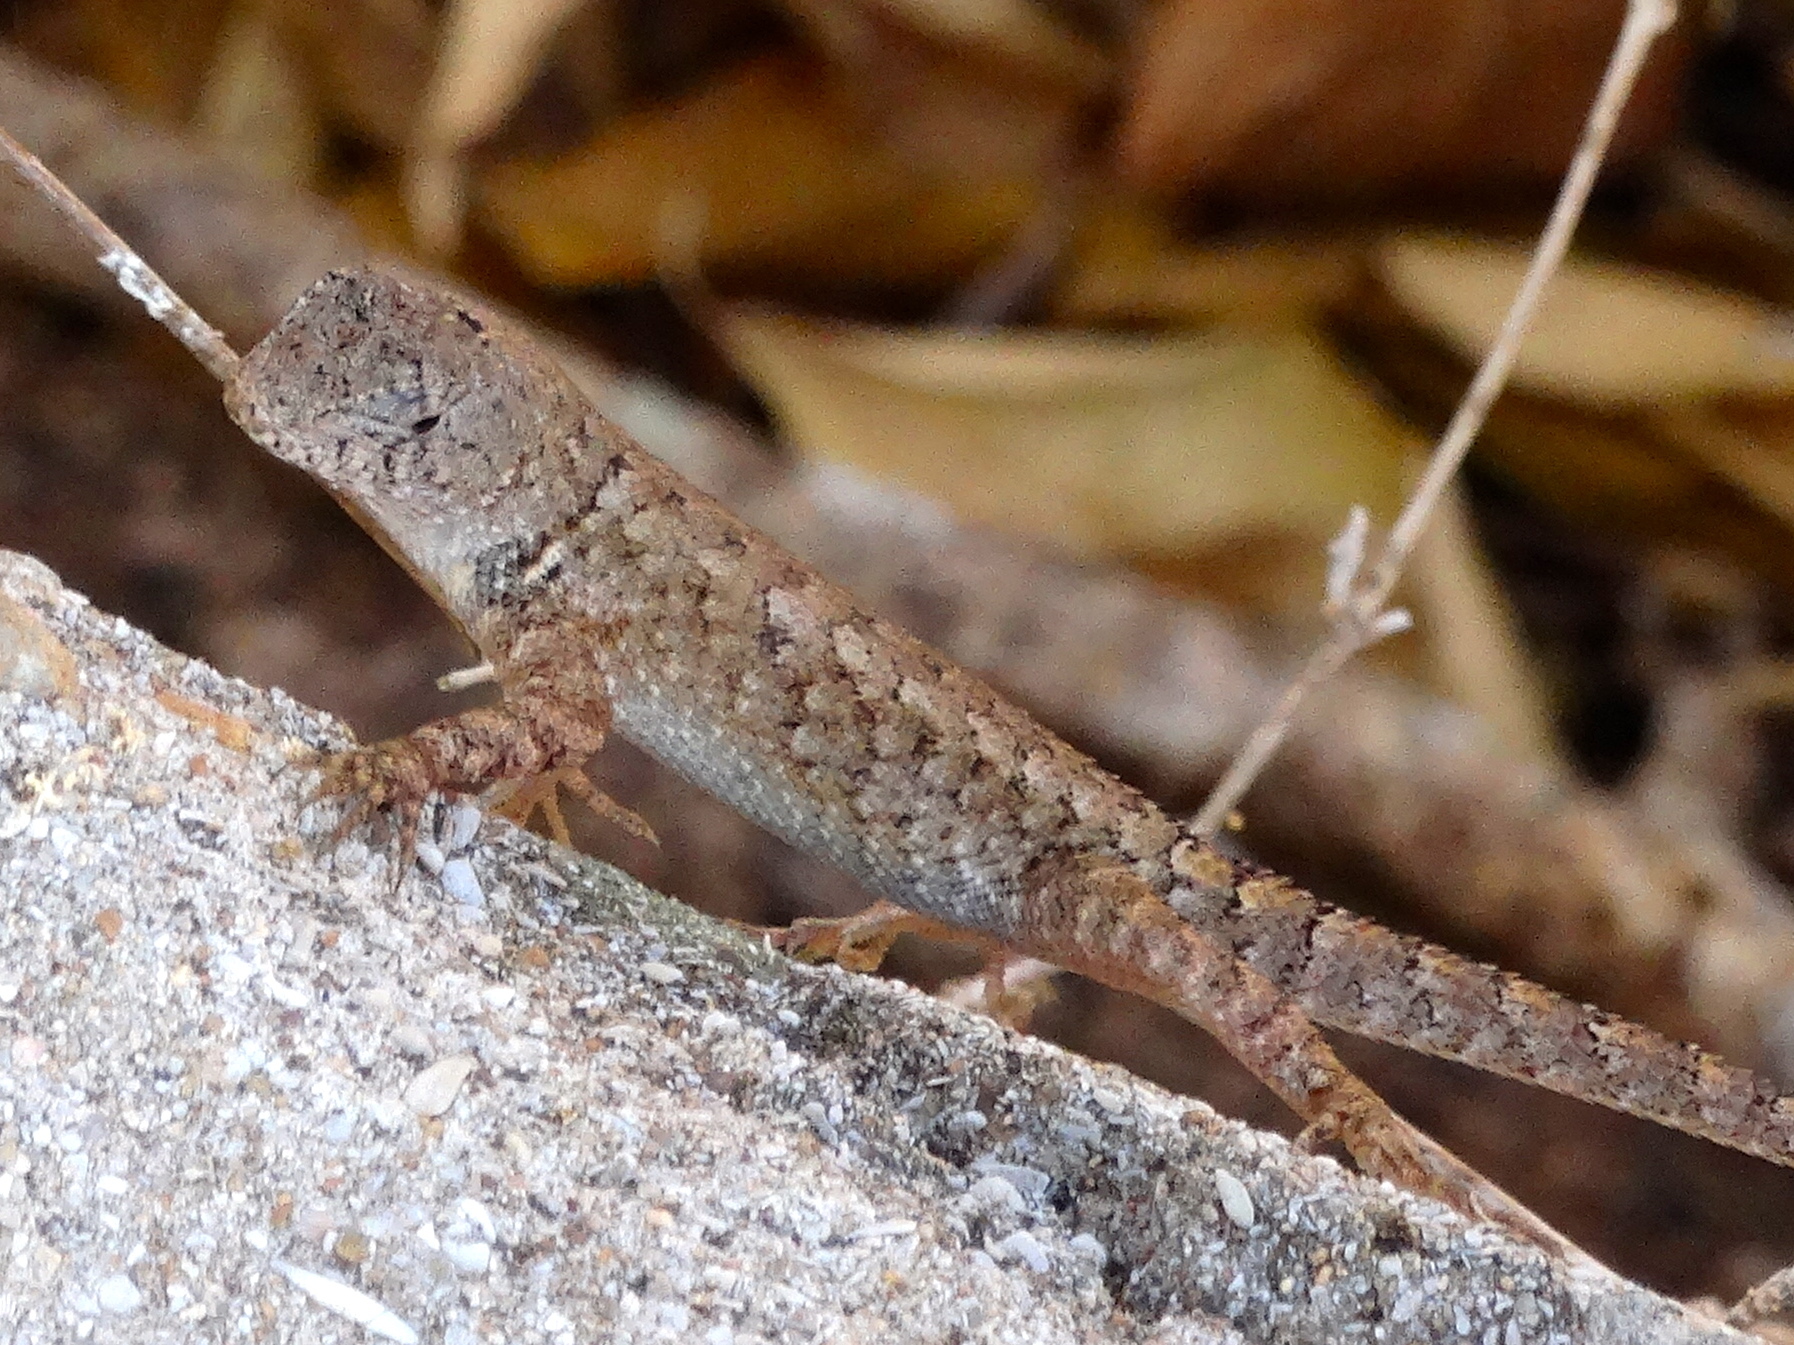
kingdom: Animalia
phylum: Chordata
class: Squamata
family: Phrynosomatidae
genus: Sceloporus
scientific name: Sceloporus nelsoni
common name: Nelson's spiny lizard
